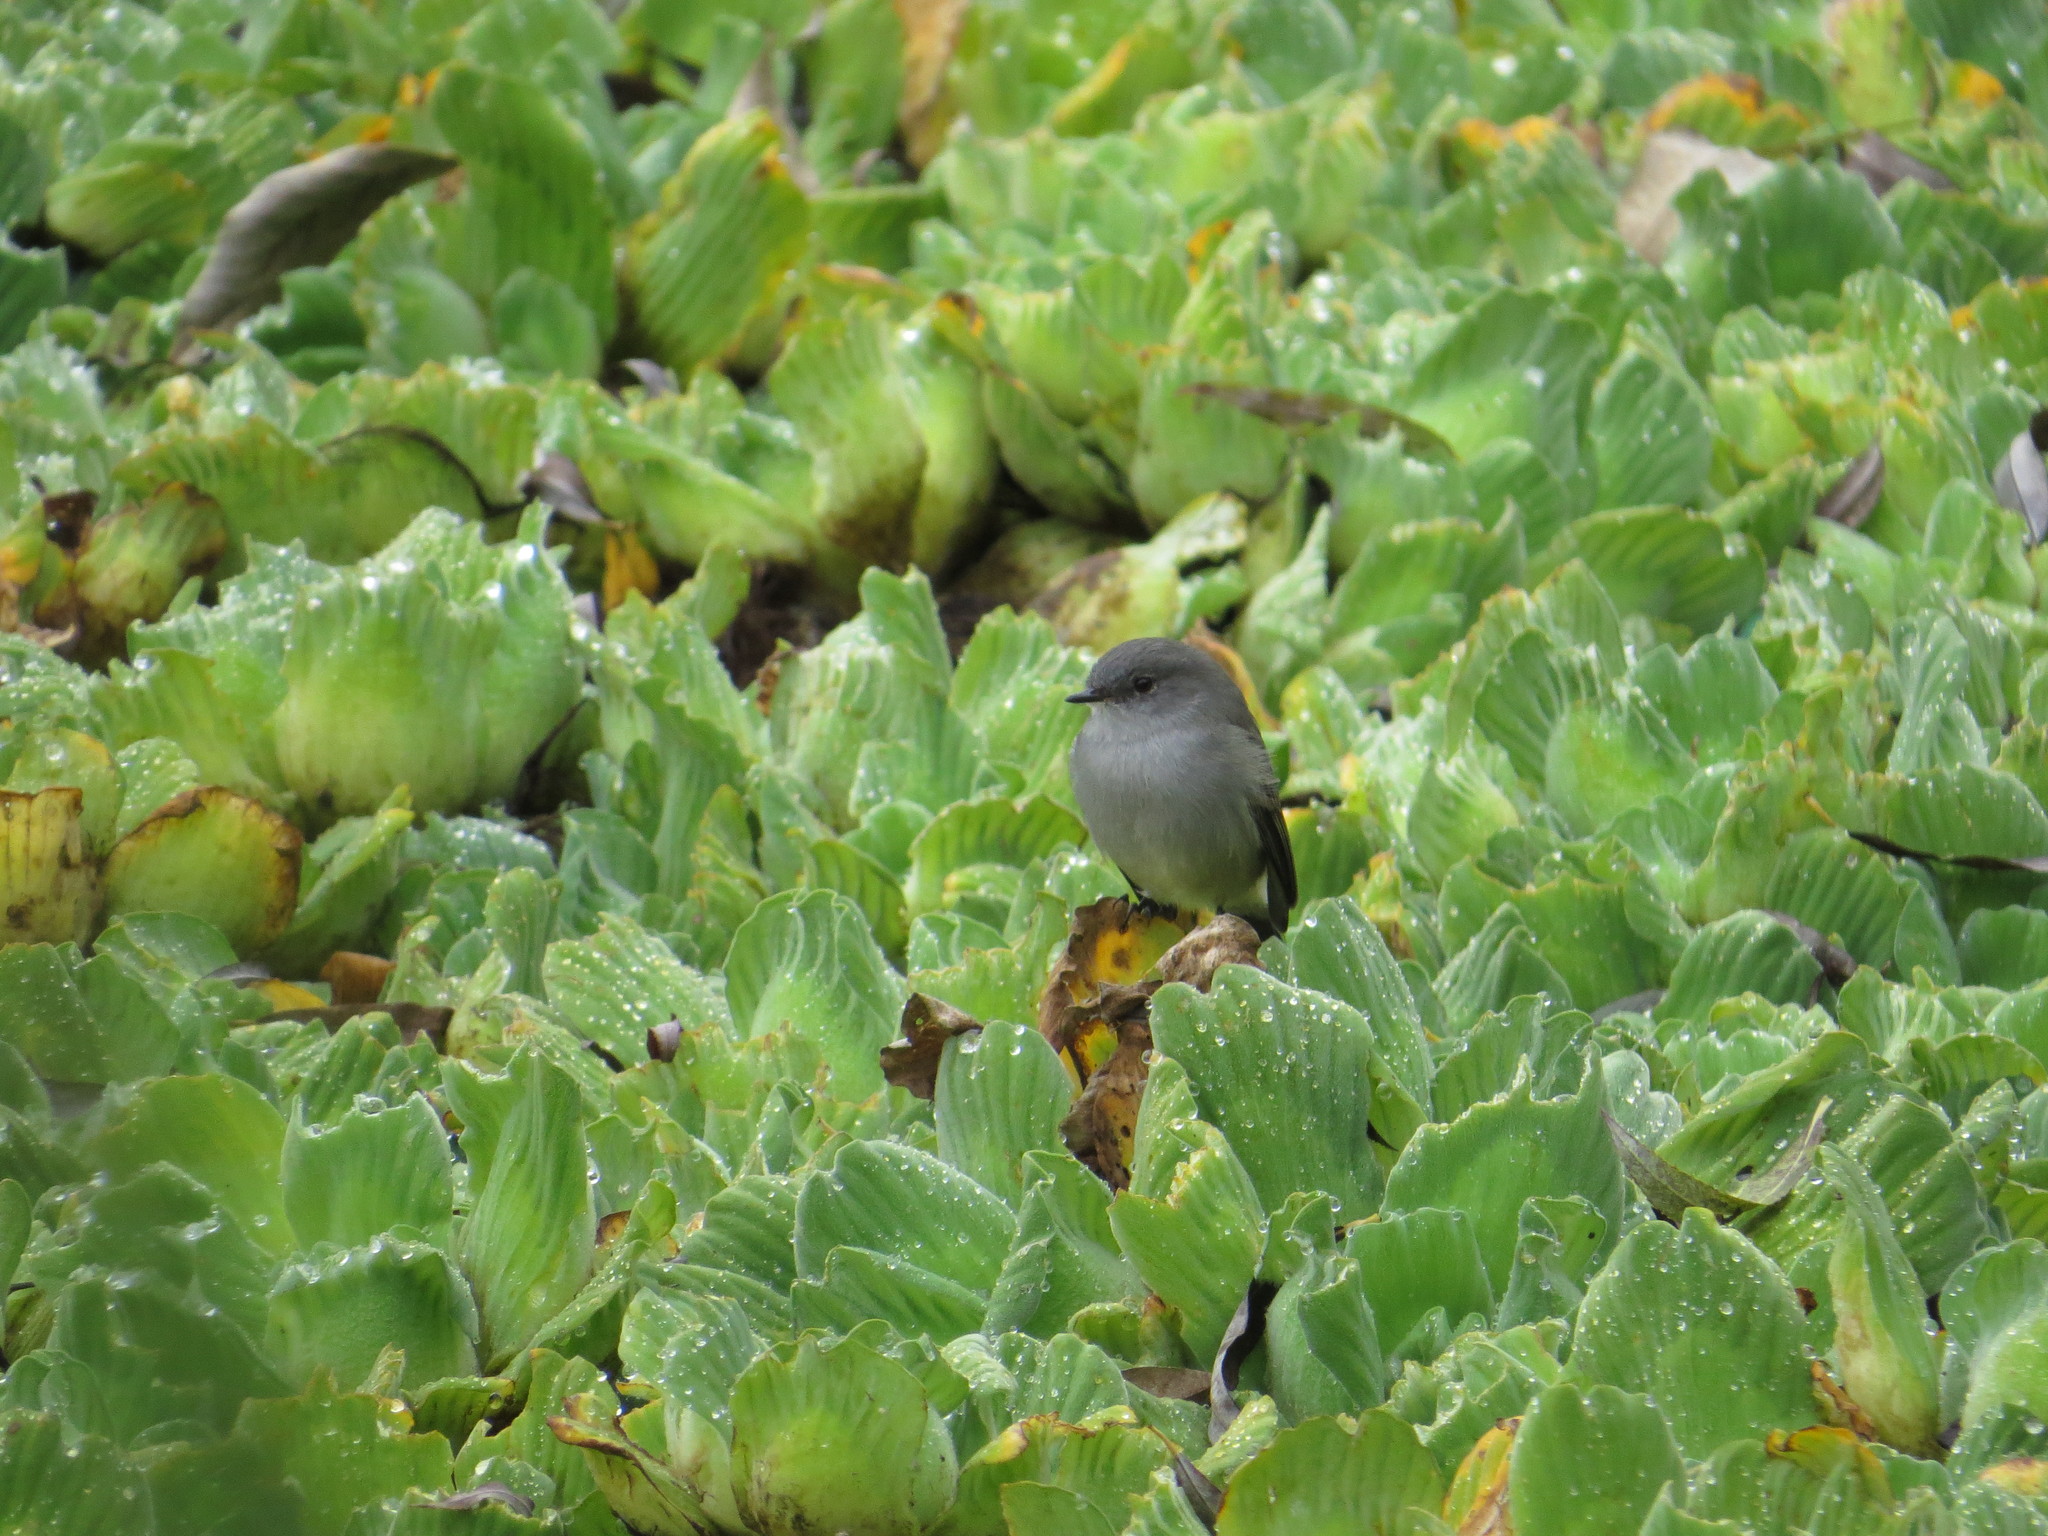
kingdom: Animalia
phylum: Chordata
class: Aves
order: Passeriformes
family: Tyrannidae
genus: Serpophaga
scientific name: Serpophaga nigricans
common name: Sooty tyrannulet
